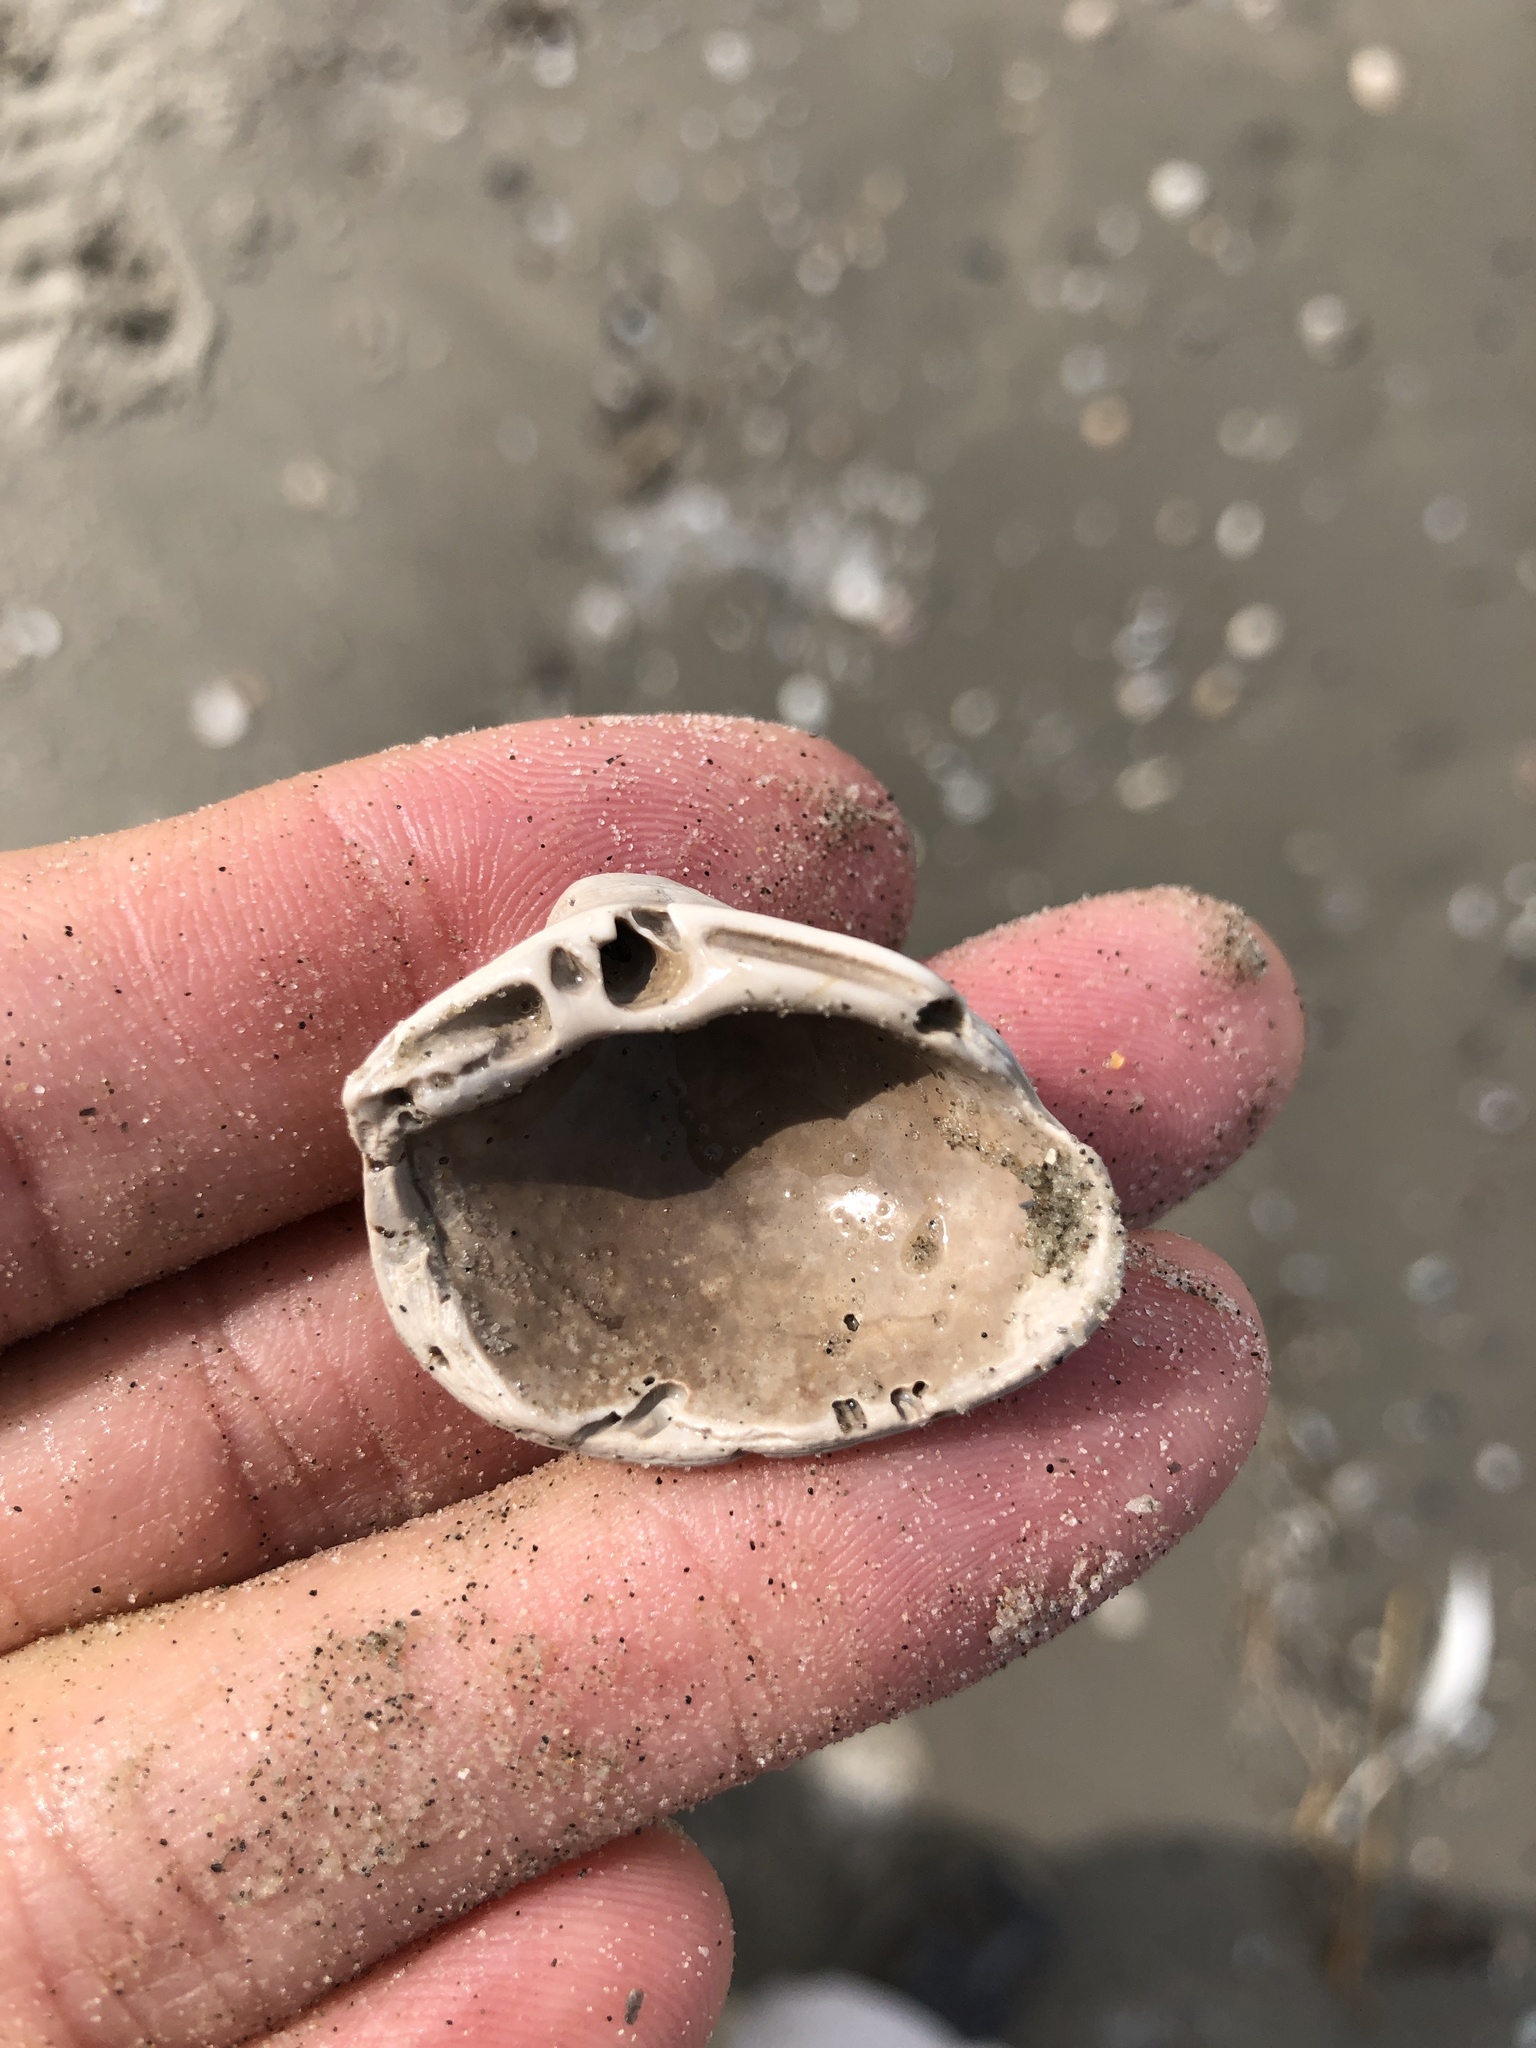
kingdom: Animalia
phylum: Mollusca
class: Bivalvia
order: Venerida
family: Mactridae
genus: Rangia
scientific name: Rangia cuneata
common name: Atlantic rangia
